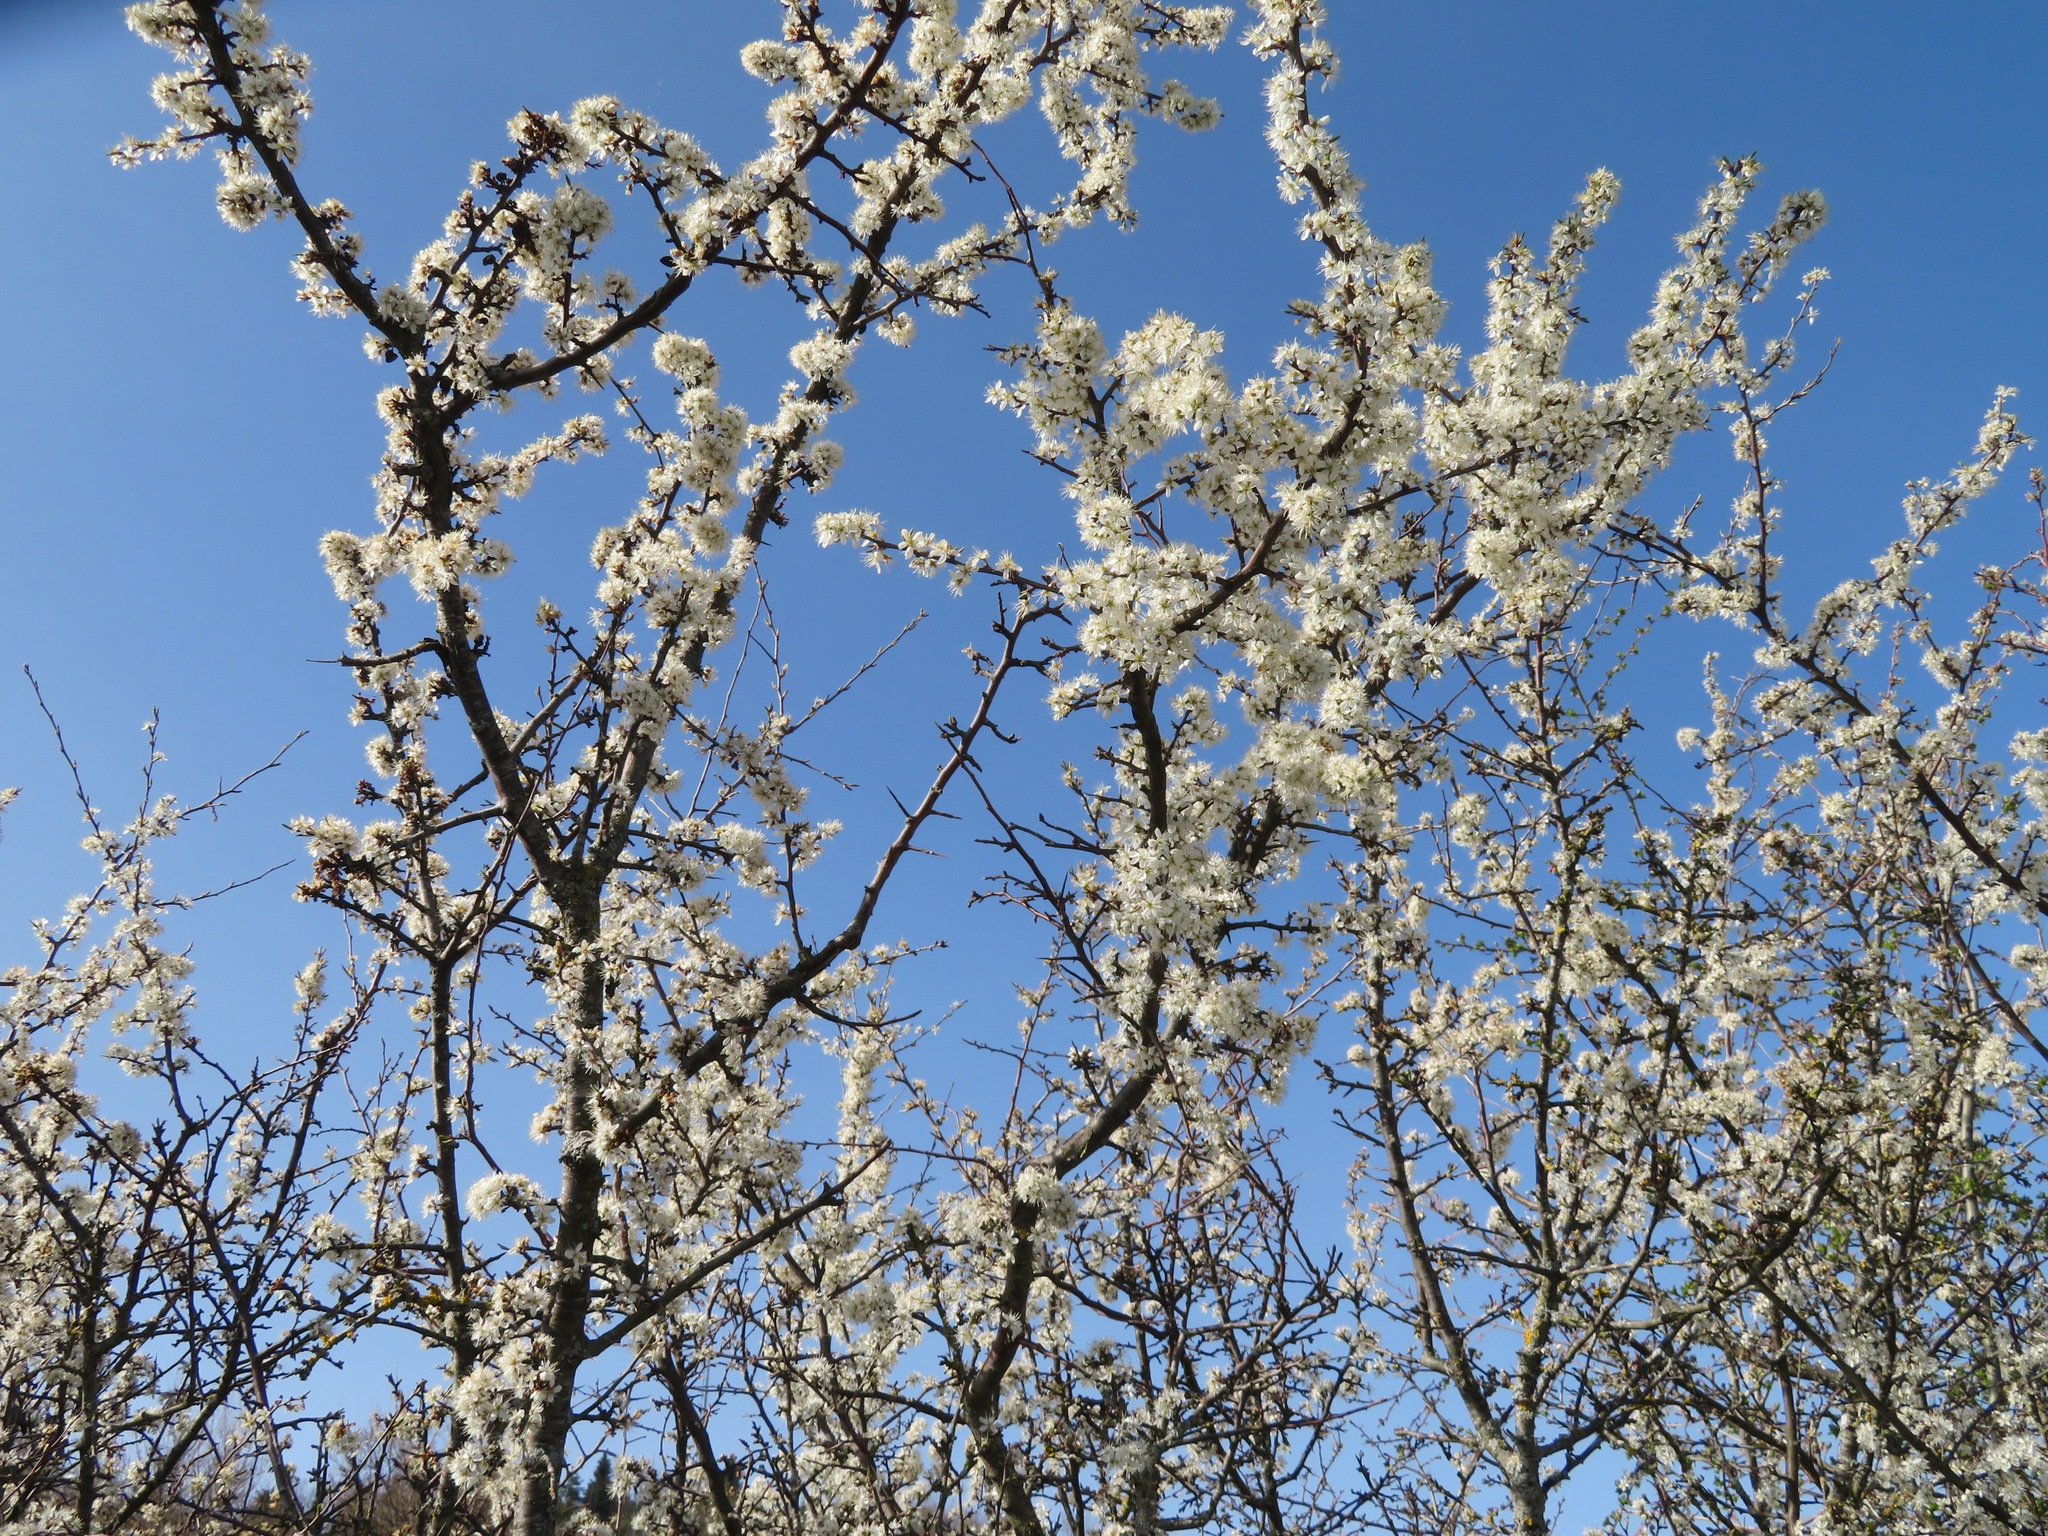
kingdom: Plantae
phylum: Tracheophyta
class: Magnoliopsida
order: Rosales
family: Rosaceae
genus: Prunus
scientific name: Prunus spinosa
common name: Blackthorn
